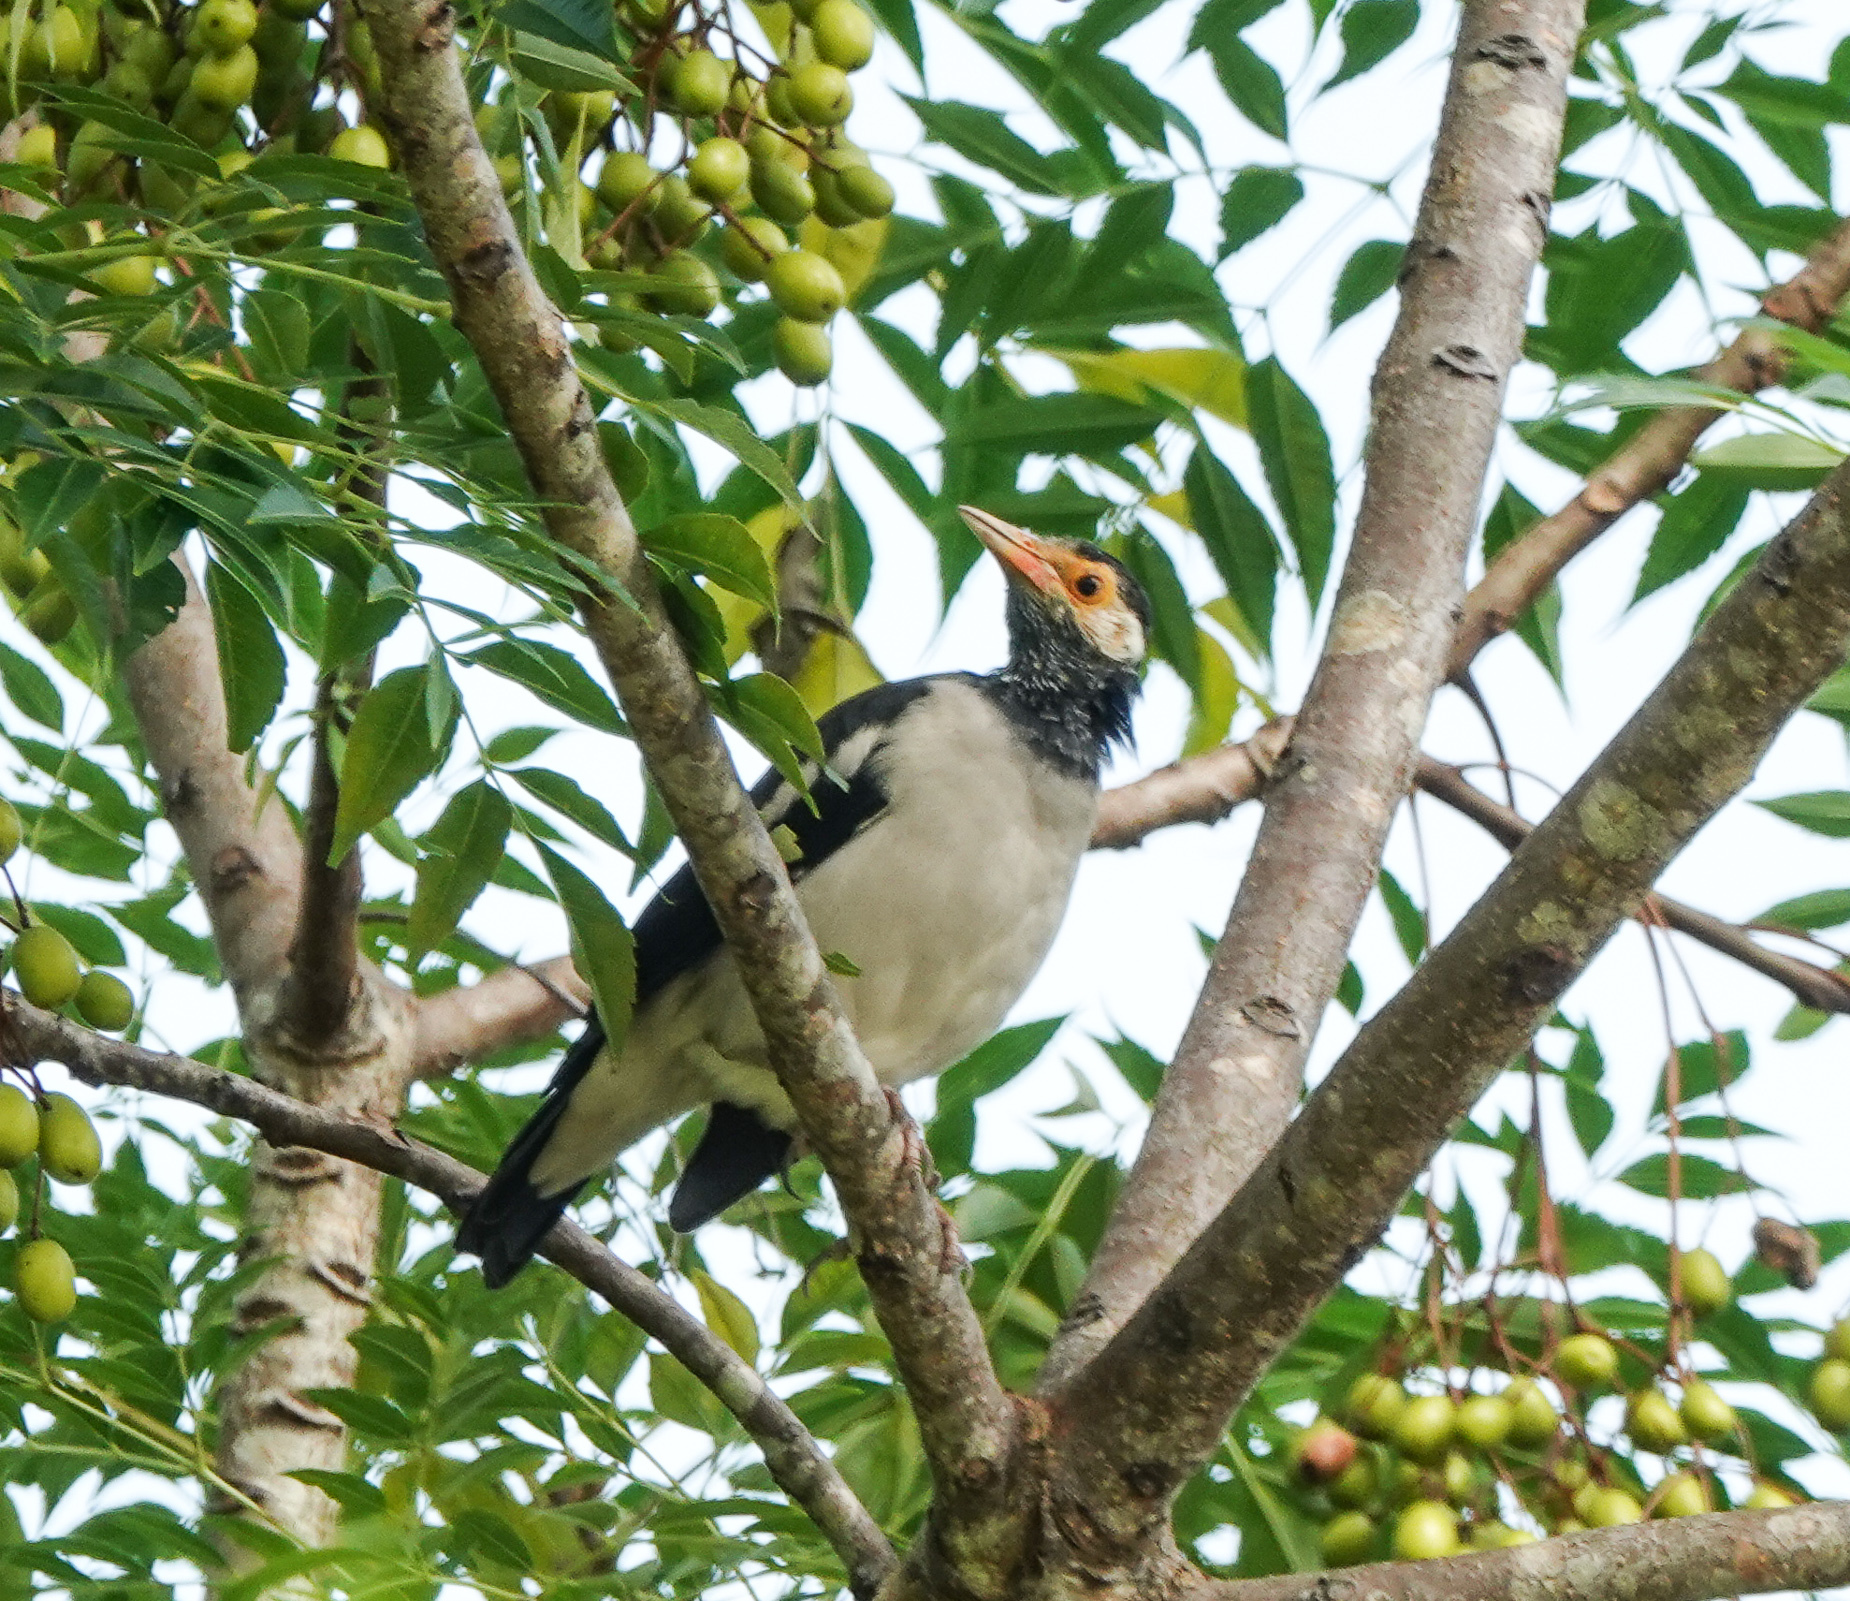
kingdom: Animalia
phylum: Chordata
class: Aves
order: Passeriformes
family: Sturnidae
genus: Gracupica
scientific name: Gracupica contra
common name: Pied myna
